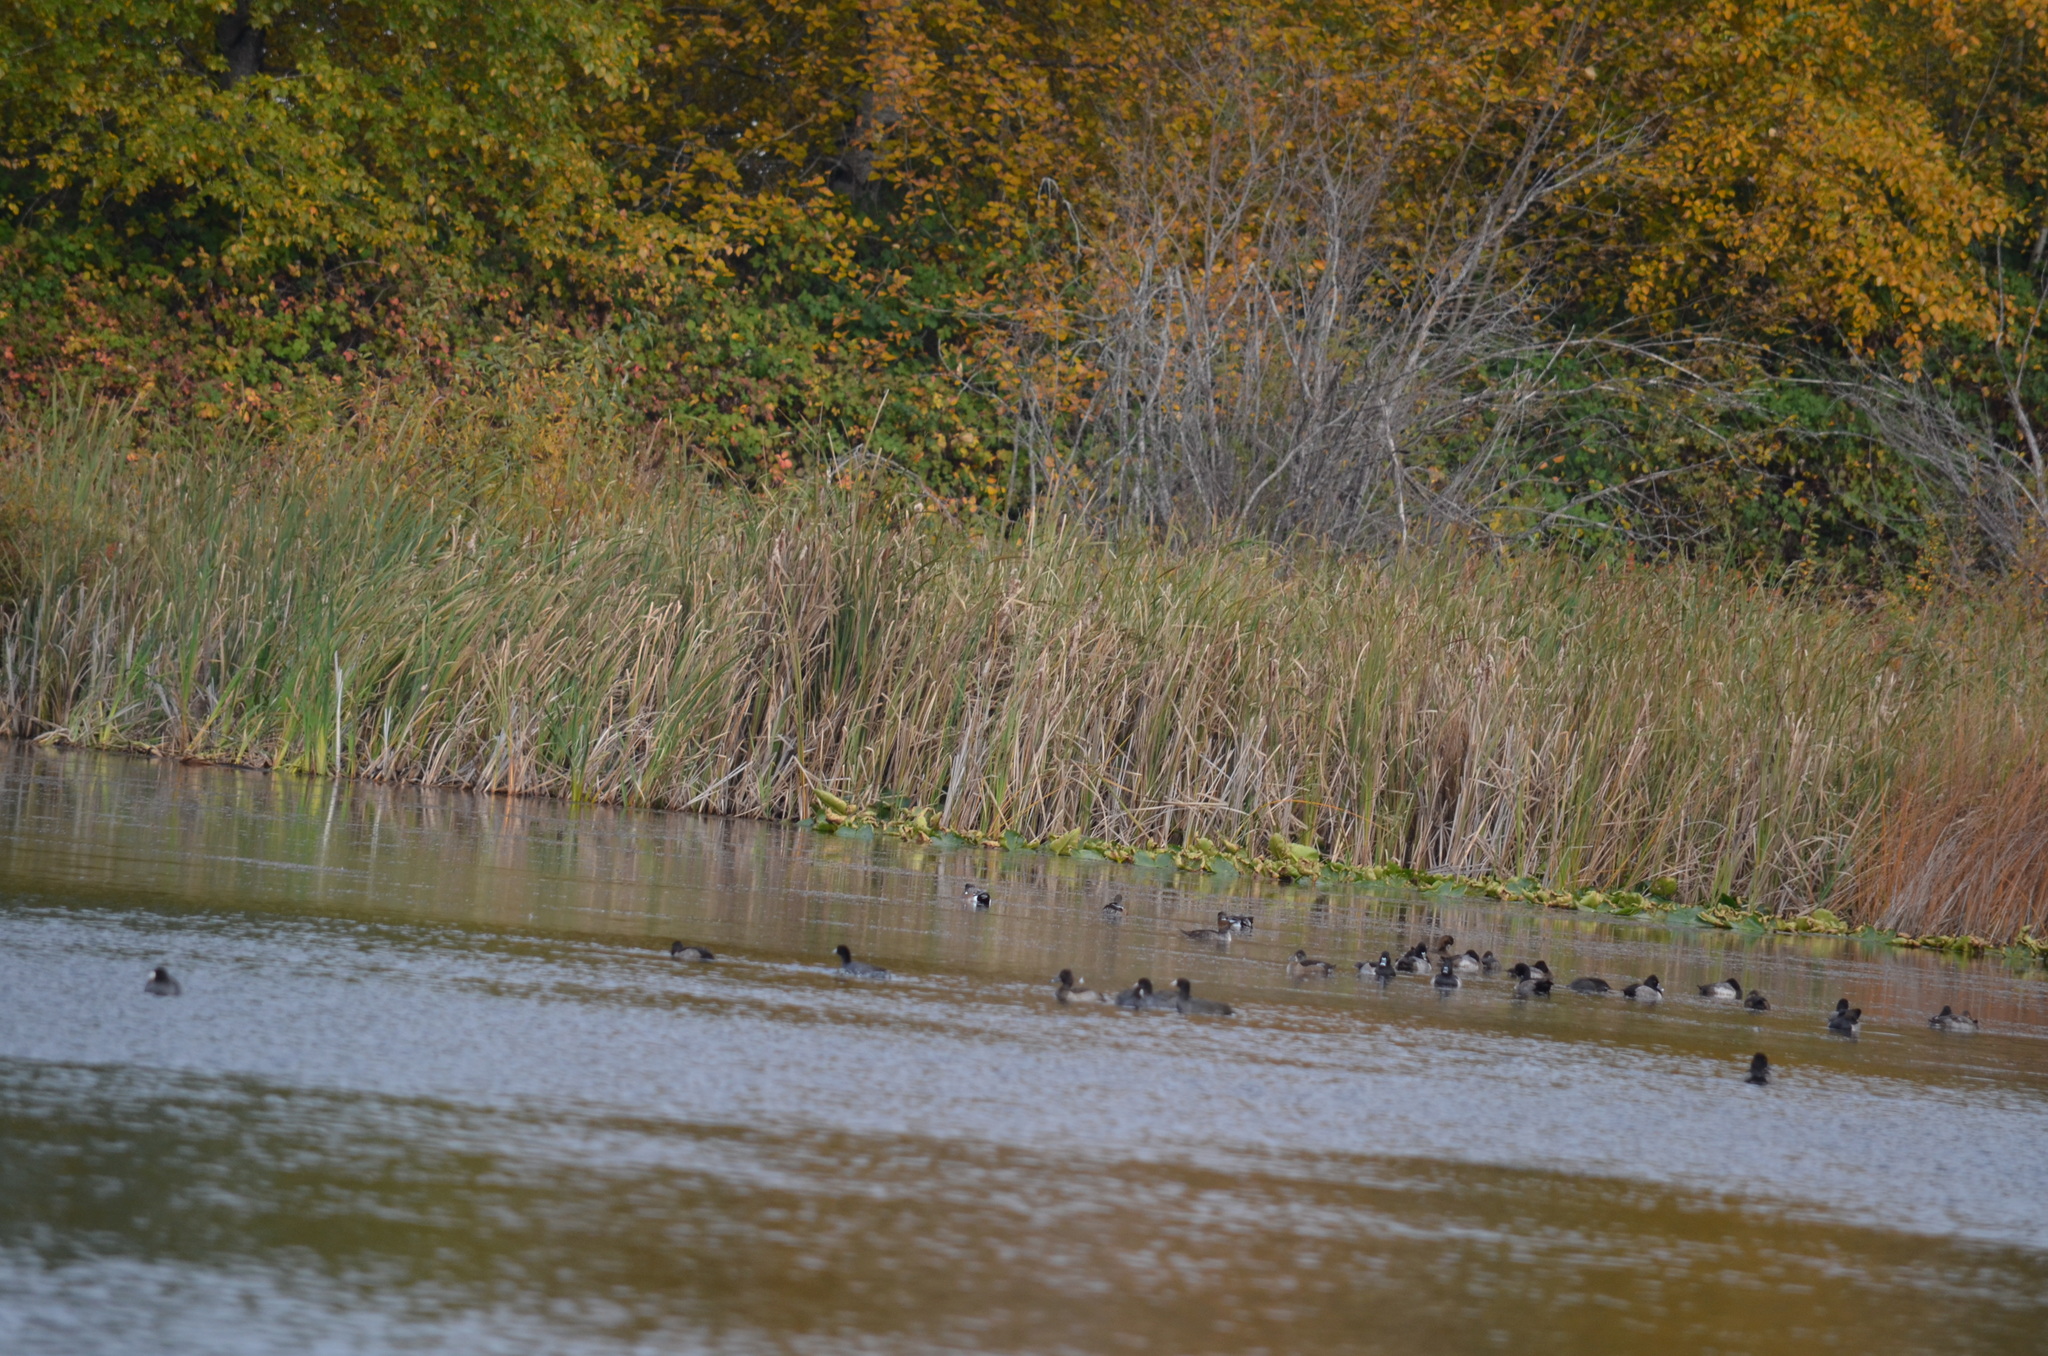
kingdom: Animalia
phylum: Chordata
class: Aves
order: Anseriformes
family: Anatidae
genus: Aythya
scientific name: Aythya collaris
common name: Ring-necked duck
